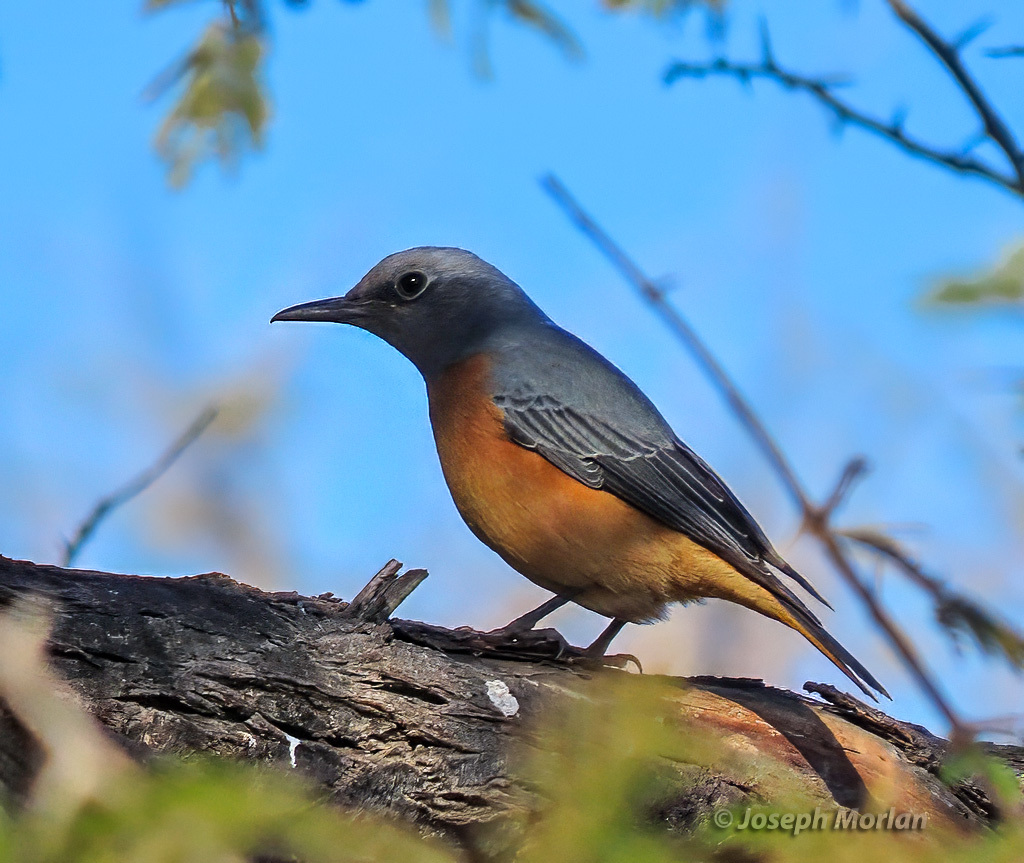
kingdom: Animalia
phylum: Chordata
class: Aves
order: Passeriformes
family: Muscicapidae
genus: Monticola
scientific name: Monticola brevipes
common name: Short-toed rock thrush
